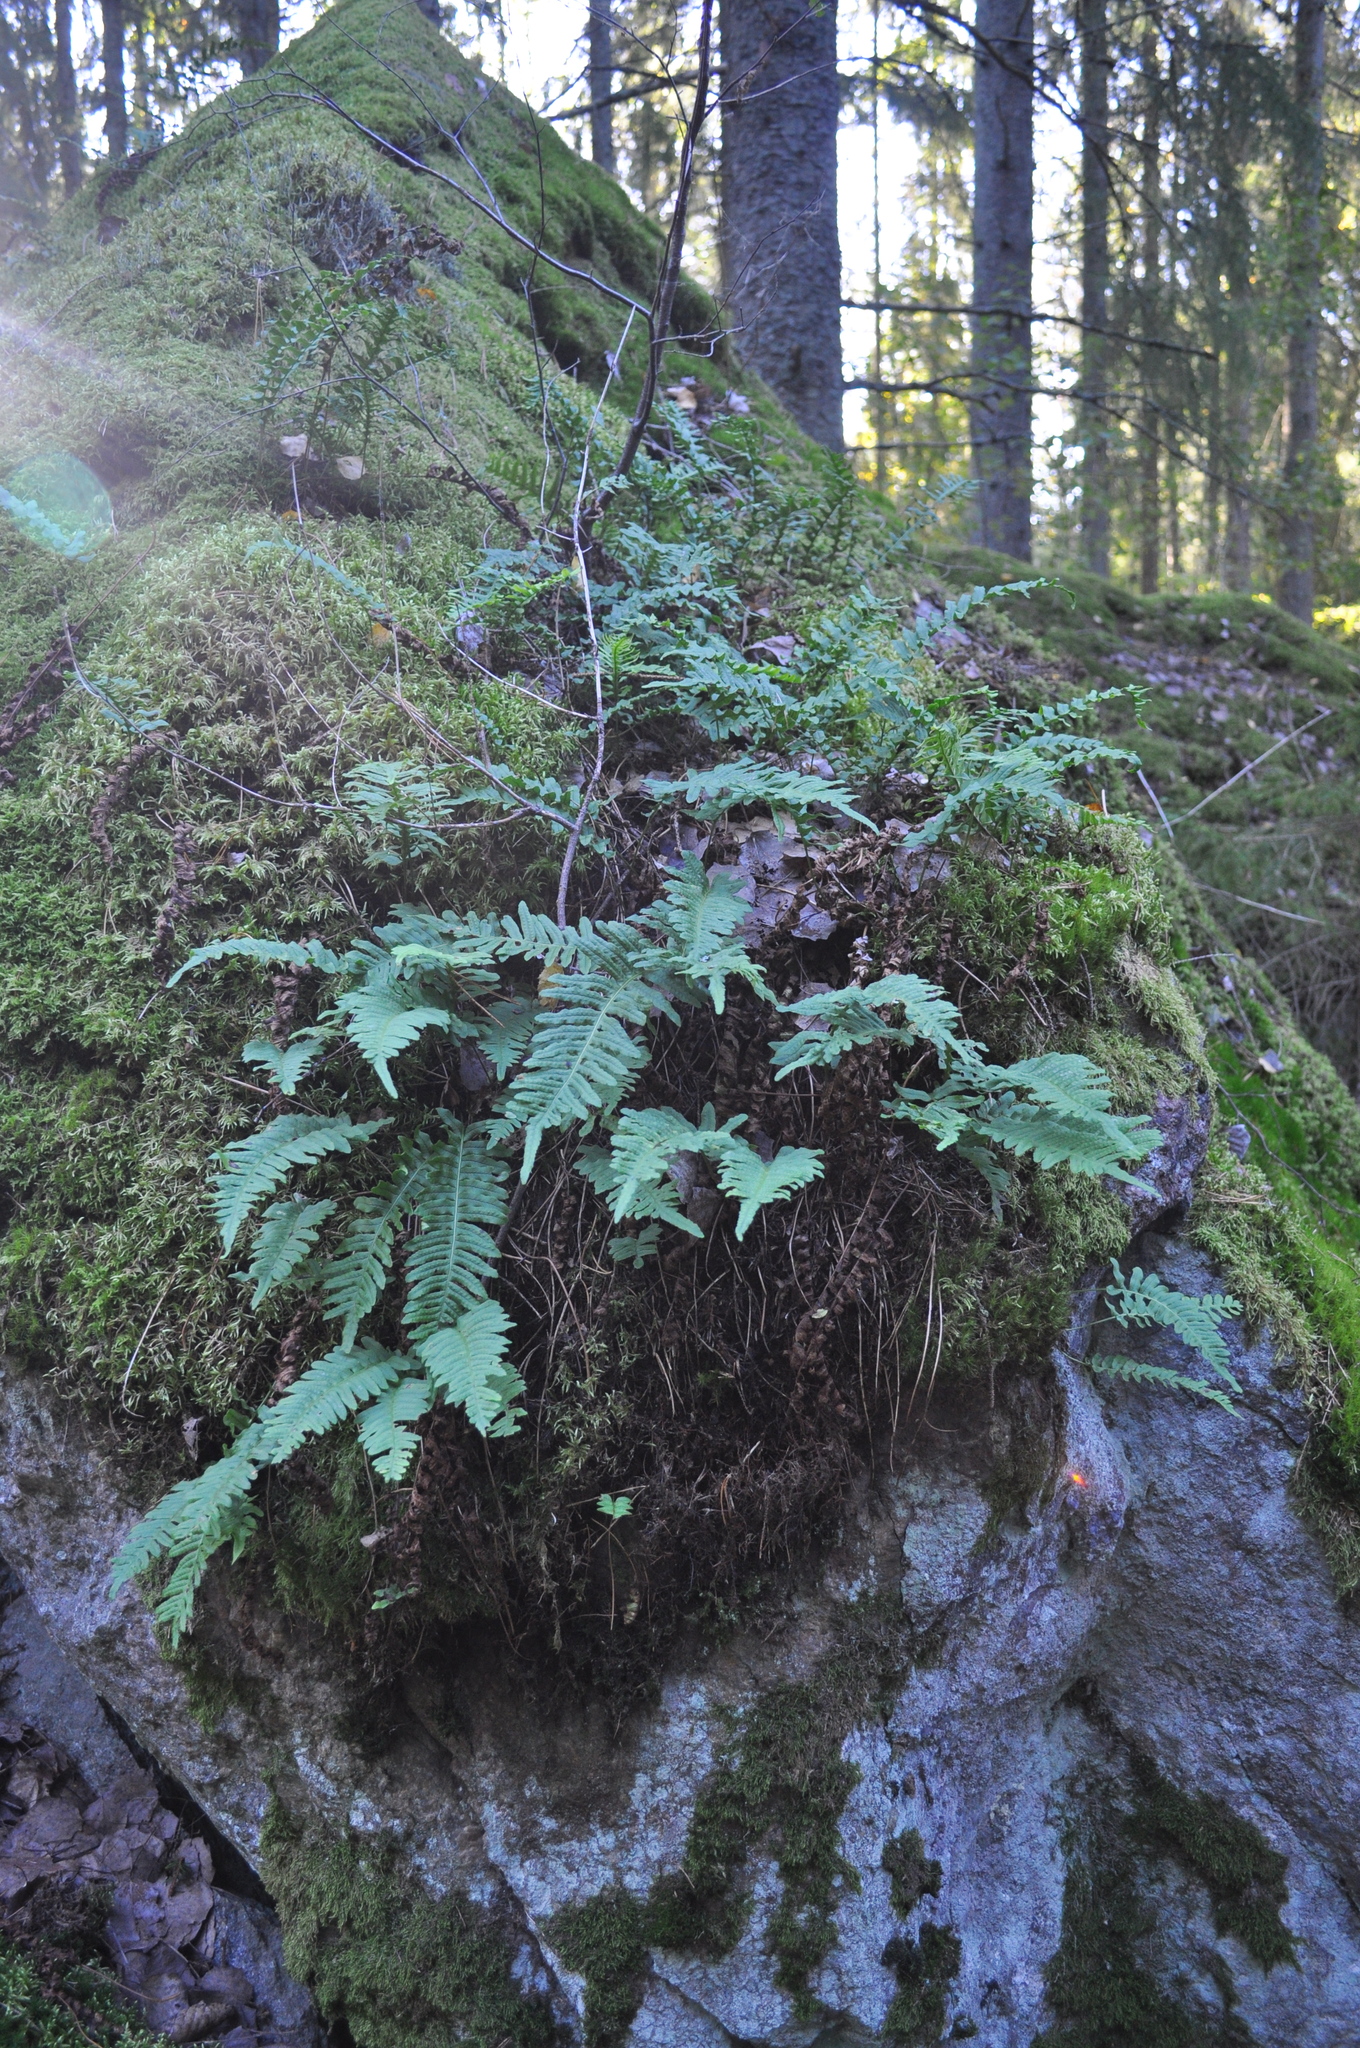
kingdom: Plantae
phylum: Tracheophyta
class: Polypodiopsida
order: Polypodiales
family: Polypodiaceae
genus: Polypodium
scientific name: Polypodium vulgare
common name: Common polypody
